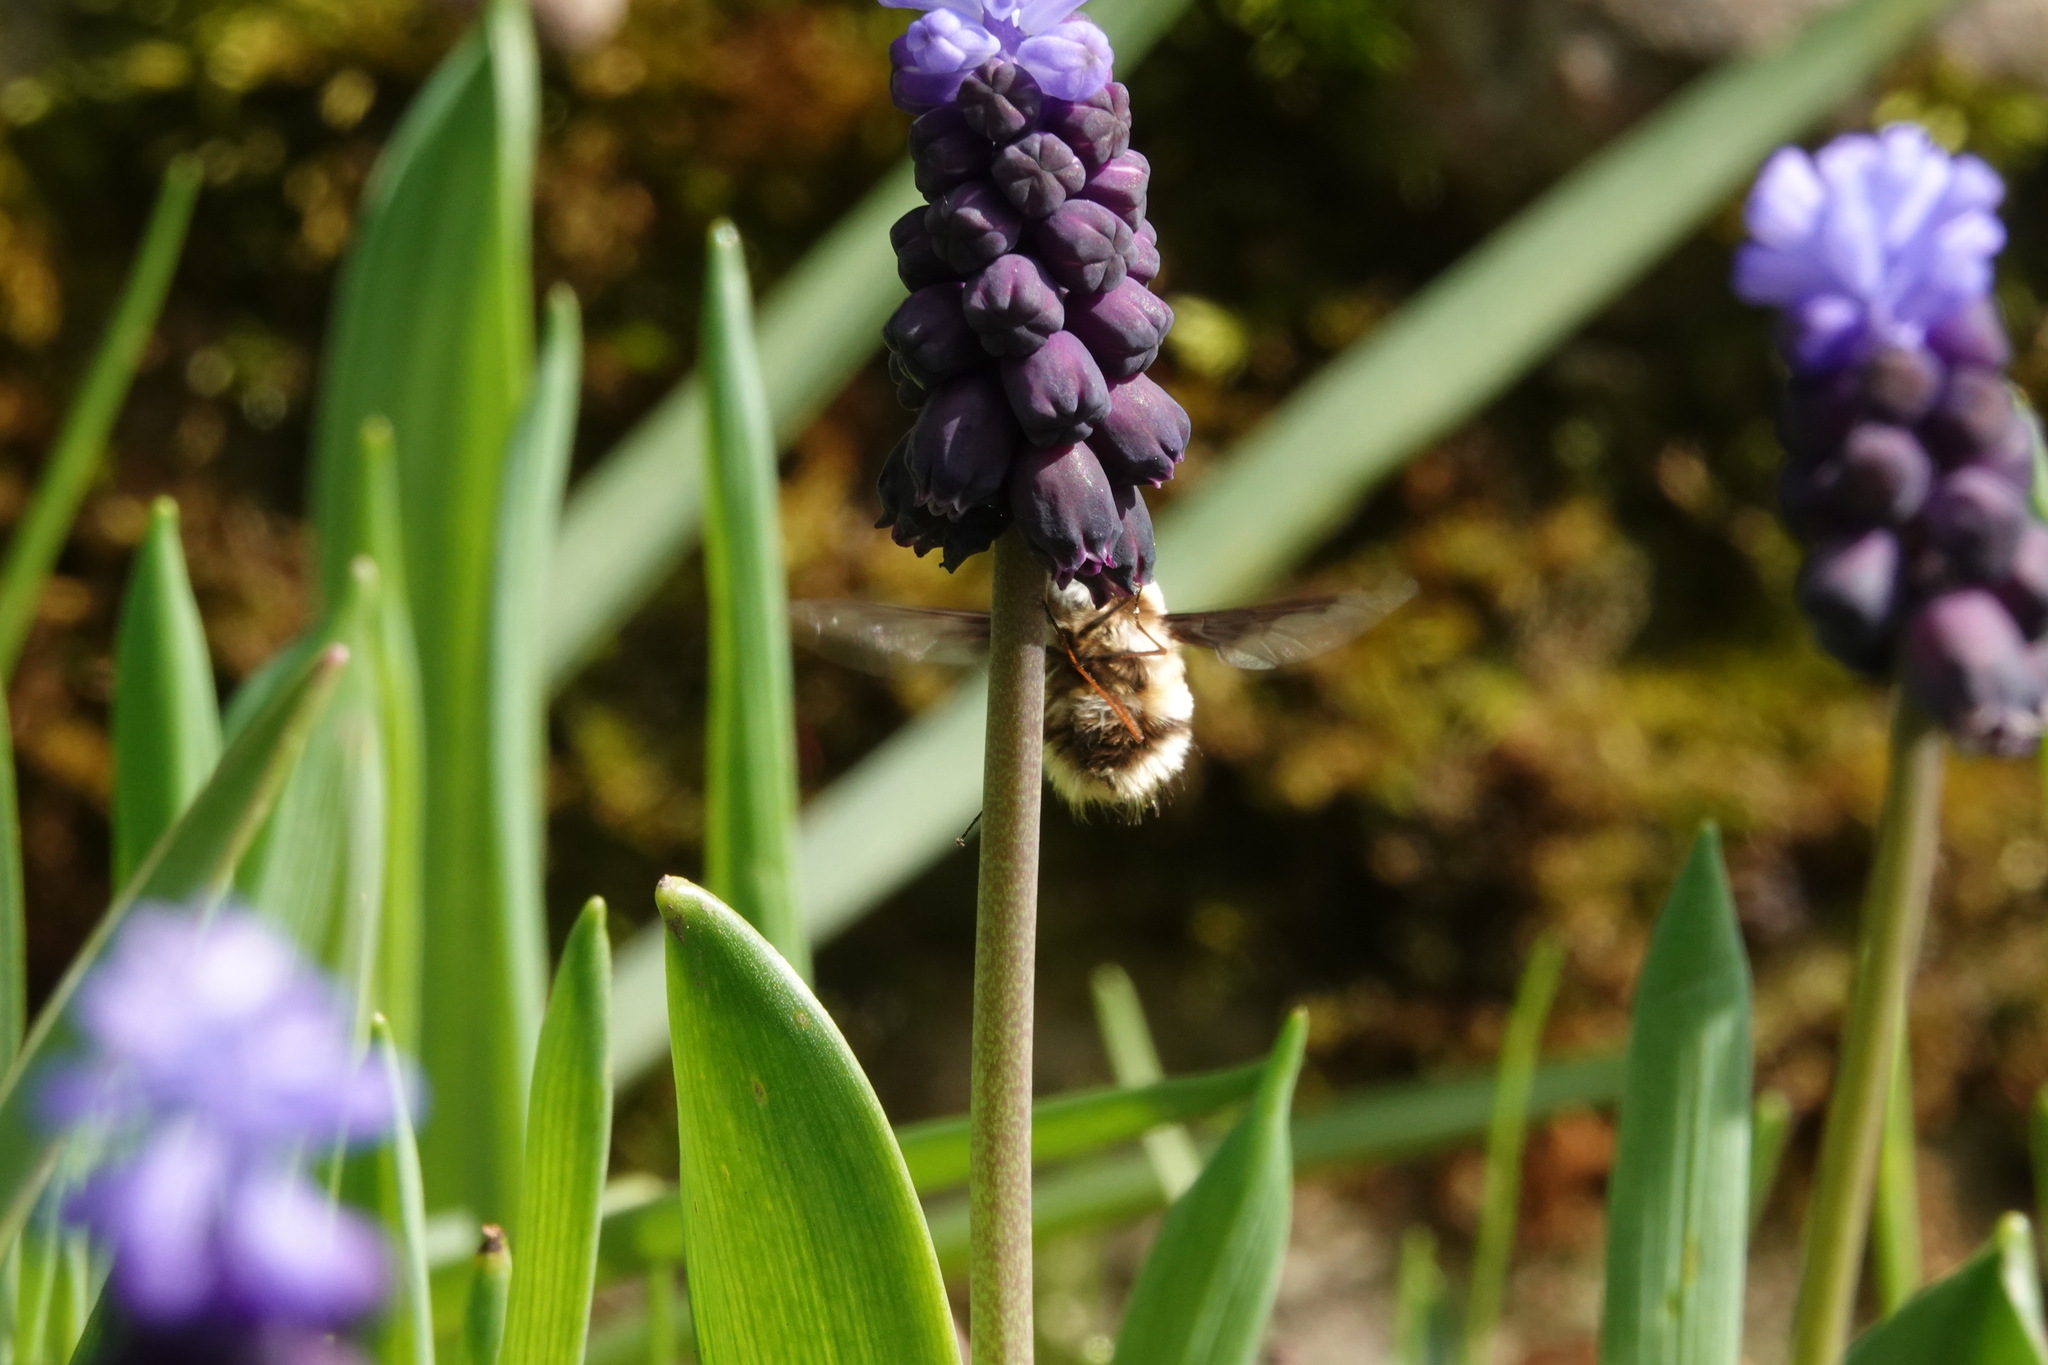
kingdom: Animalia
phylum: Arthropoda
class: Insecta
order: Diptera
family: Bombyliidae
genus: Bombylius
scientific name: Bombylius major
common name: Bee fly
